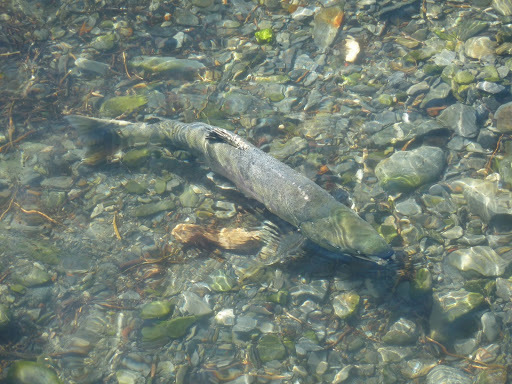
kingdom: Animalia
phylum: Chordata
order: Salmoniformes
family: Salmonidae
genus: Oncorhynchus
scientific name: Oncorhynchus keta
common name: Chum salmon
